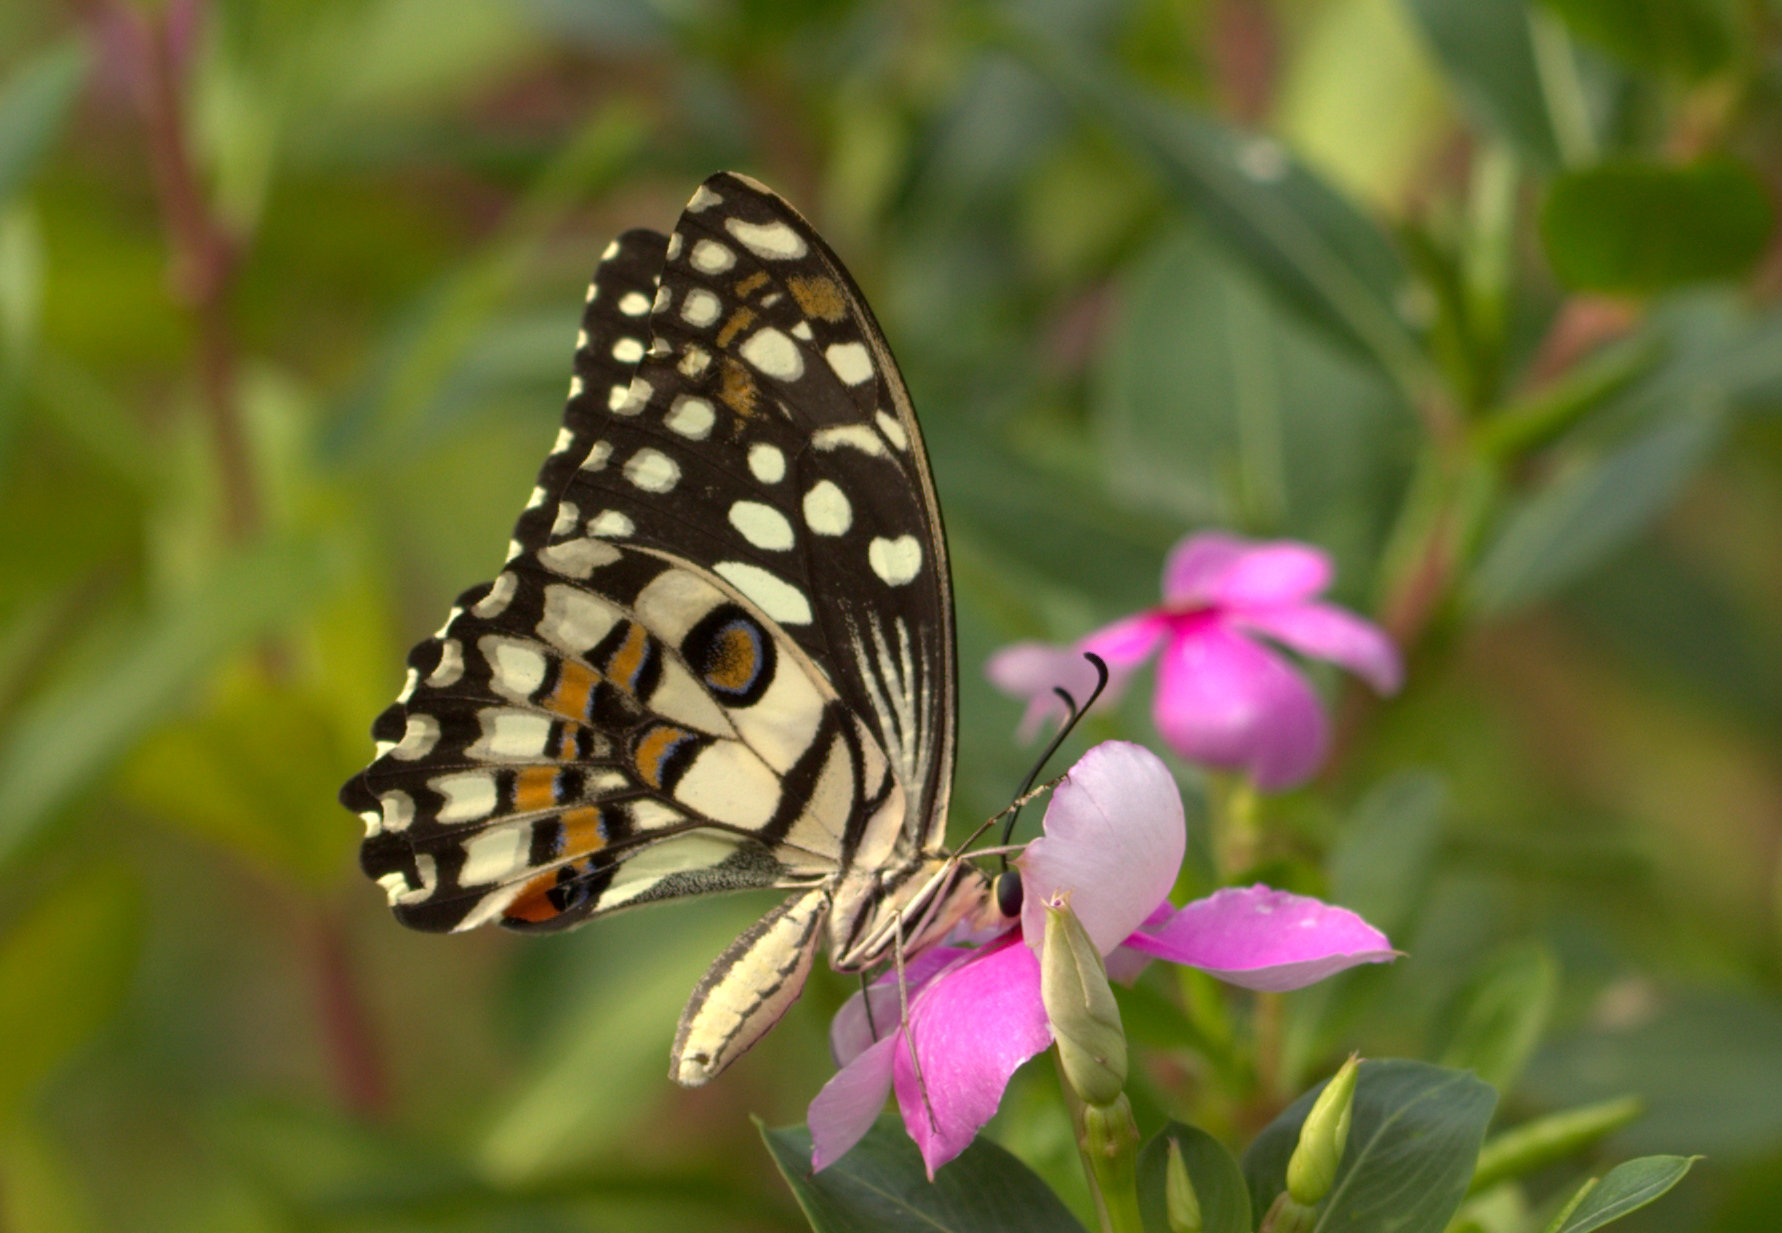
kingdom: Animalia
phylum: Arthropoda
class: Insecta
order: Lepidoptera
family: Papilionidae
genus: Papilio
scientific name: Papilio demoleus
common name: Lime butterfly
